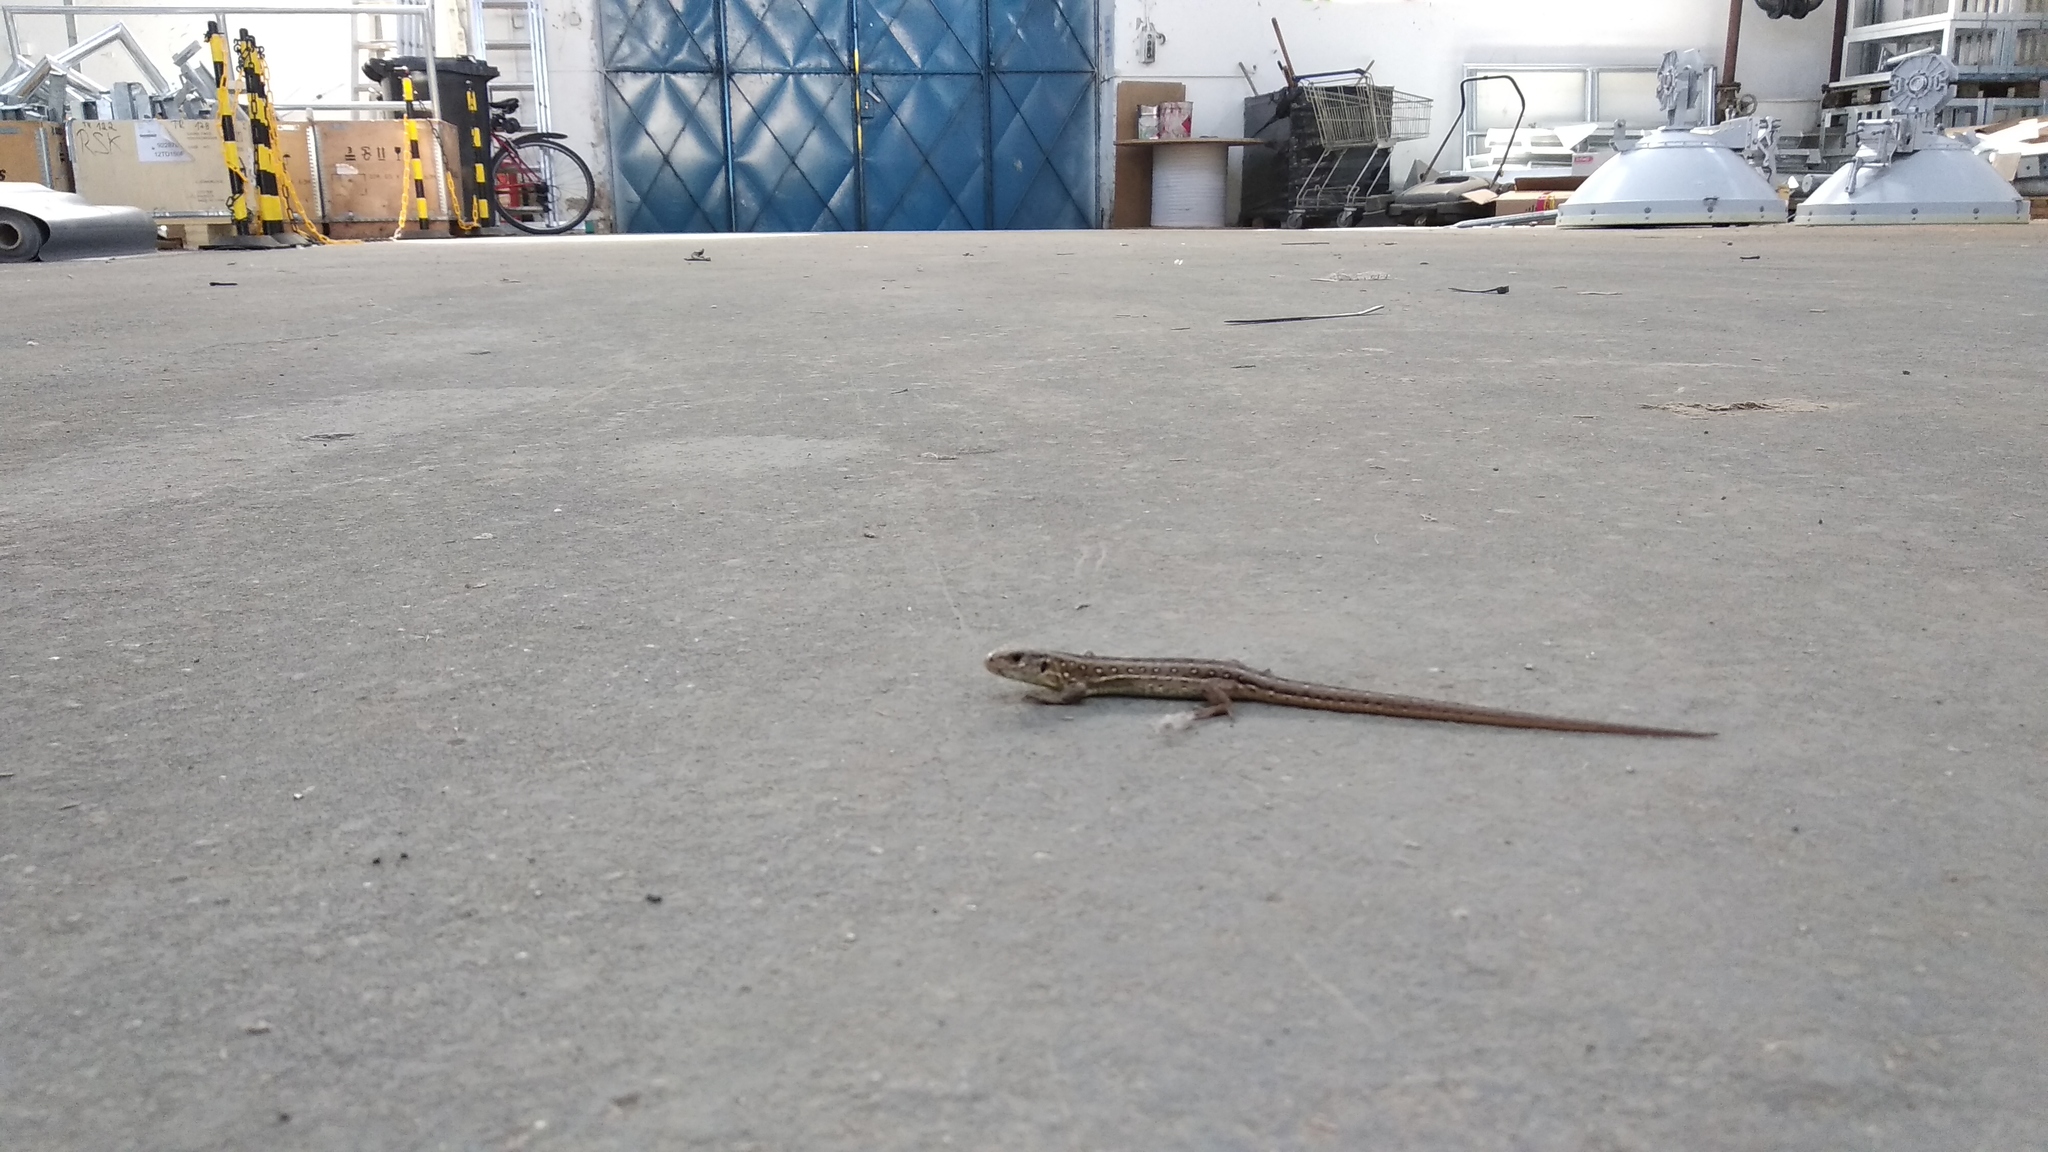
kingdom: Animalia
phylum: Chordata
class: Squamata
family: Lacertidae
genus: Lacerta
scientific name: Lacerta agilis
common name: Sand lizard
